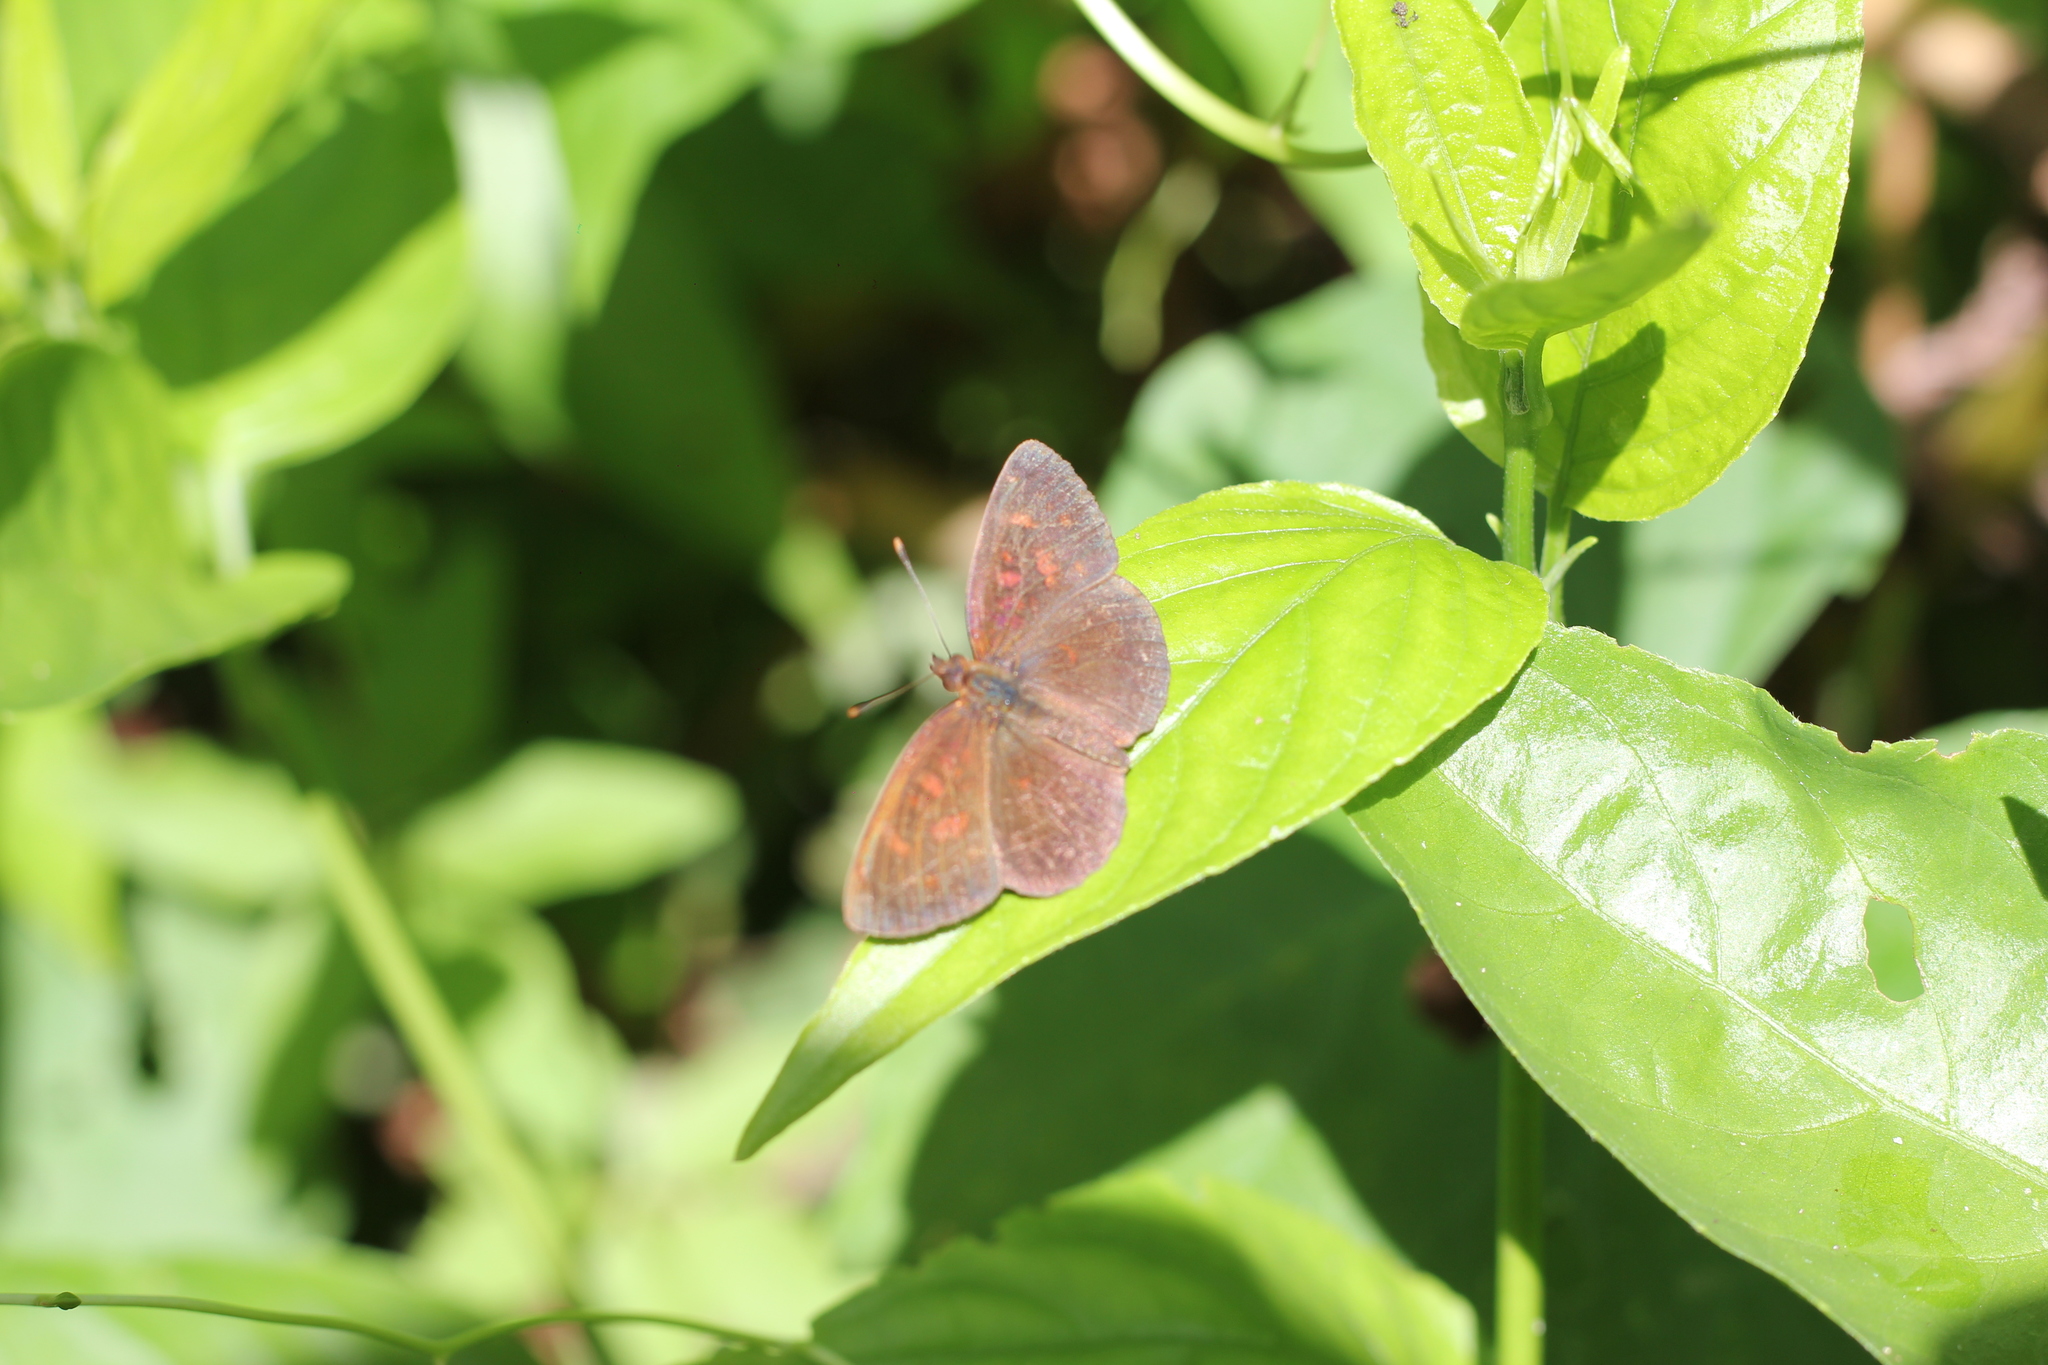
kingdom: Animalia
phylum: Arthropoda
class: Insecta
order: Lepidoptera
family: Nymphalidae
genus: Ortilia
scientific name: Ortilia velica
